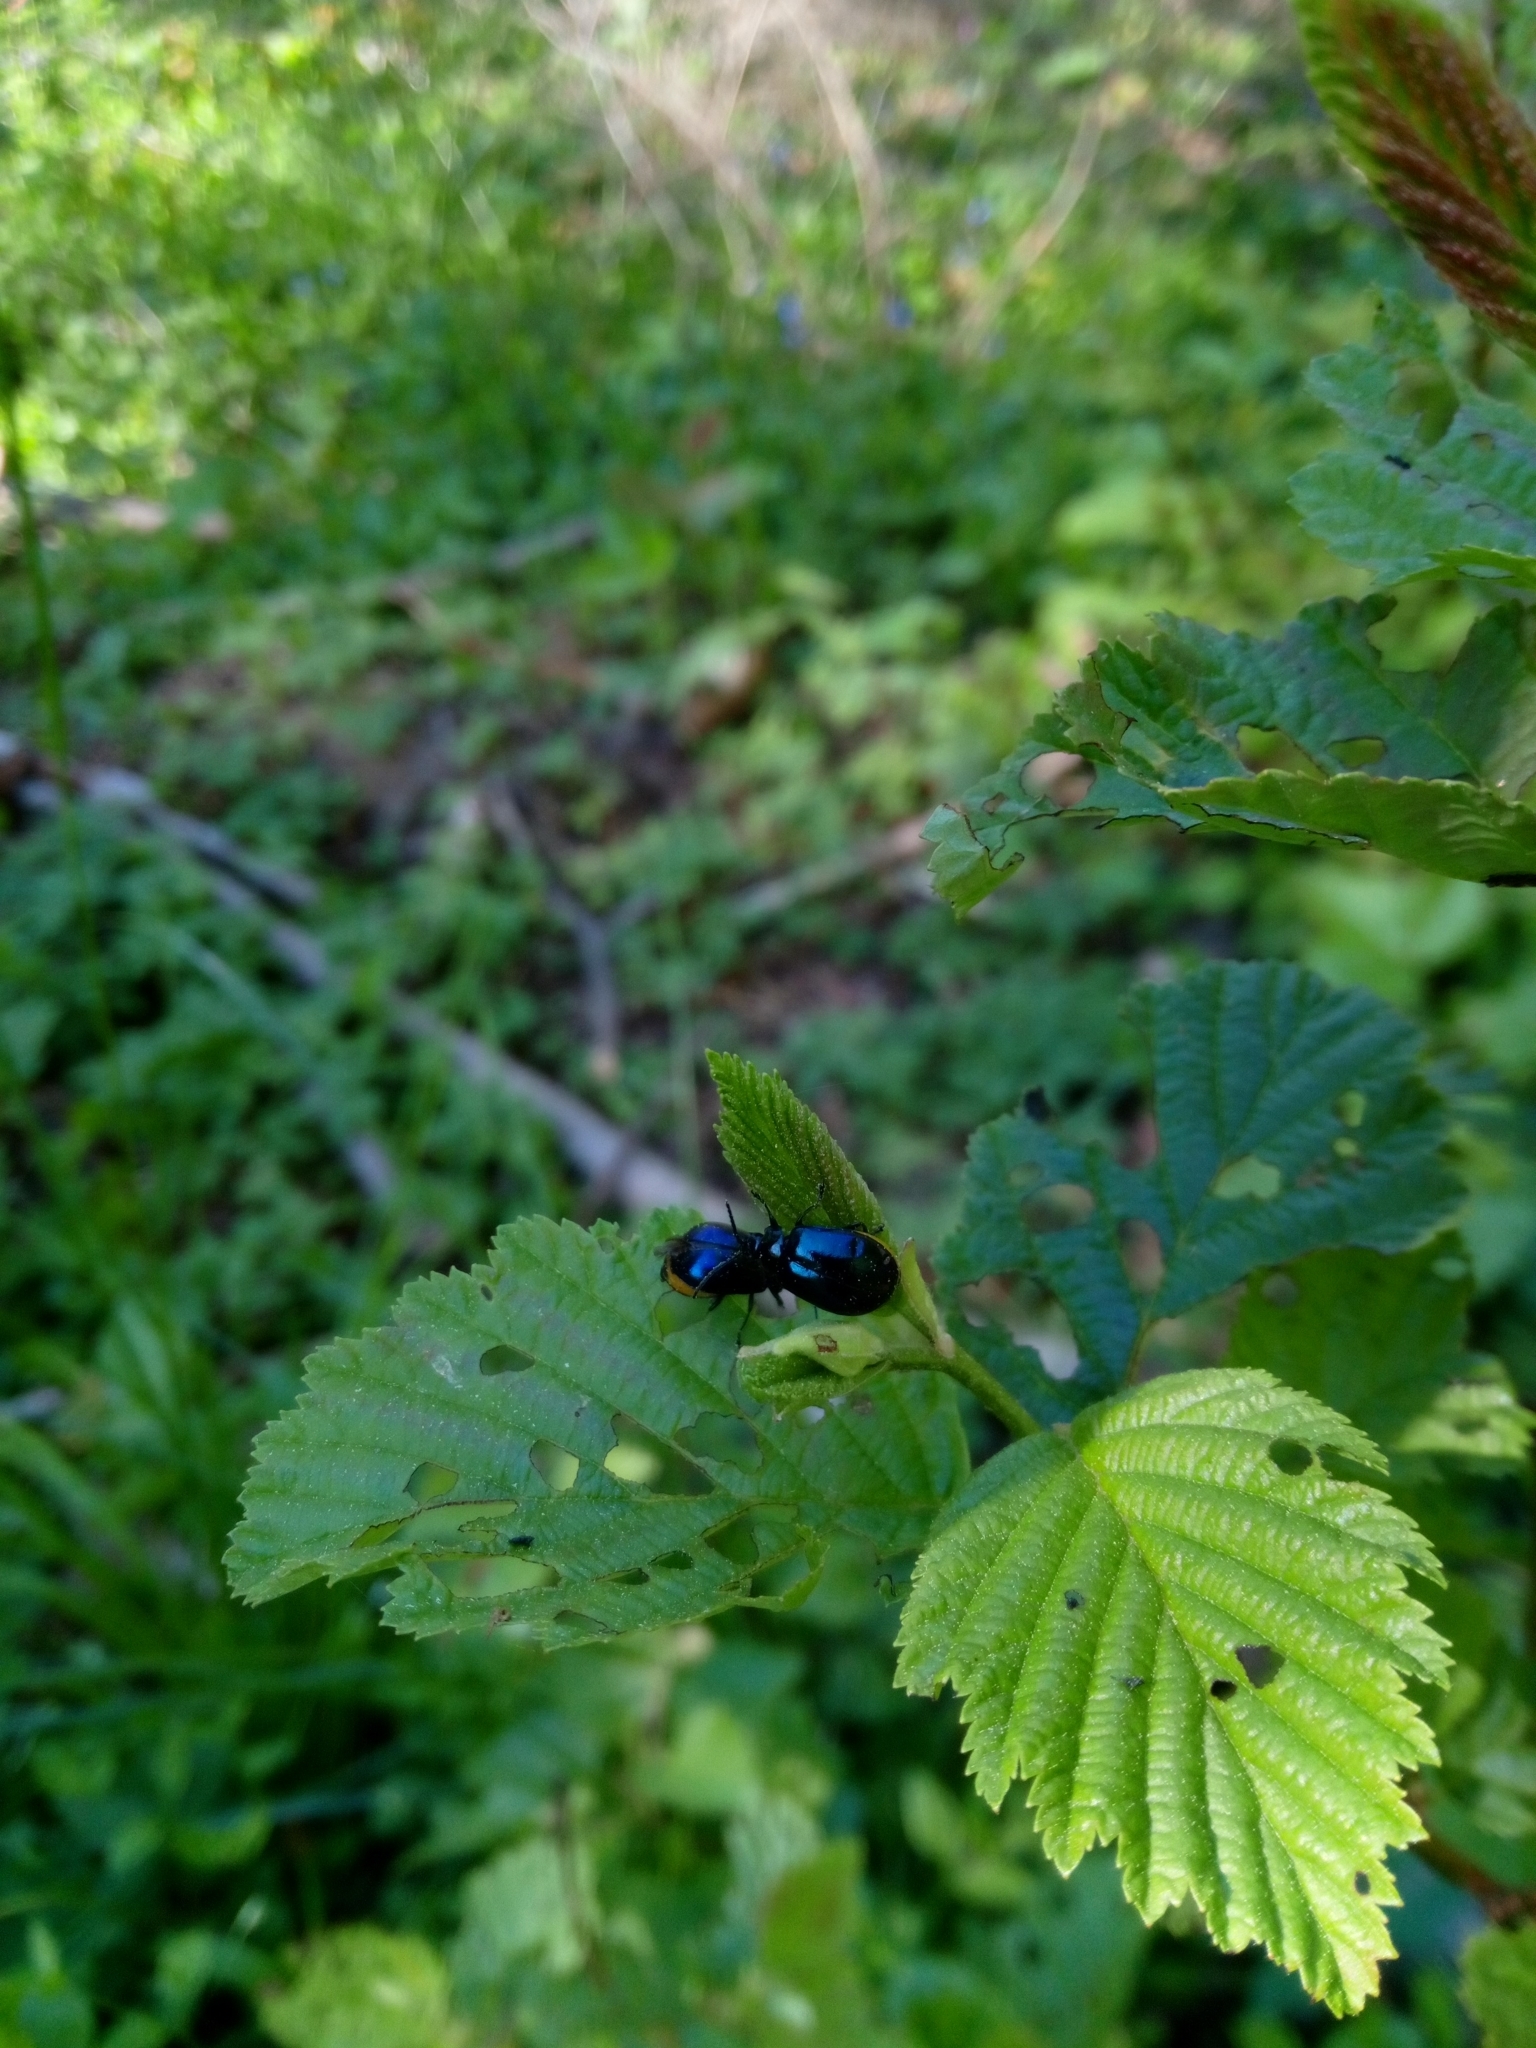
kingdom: Animalia
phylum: Arthropoda
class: Insecta
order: Coleoptera
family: Chrysomelidae
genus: Agelastica
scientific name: Agelastica alni
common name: Alder leaf beetle
